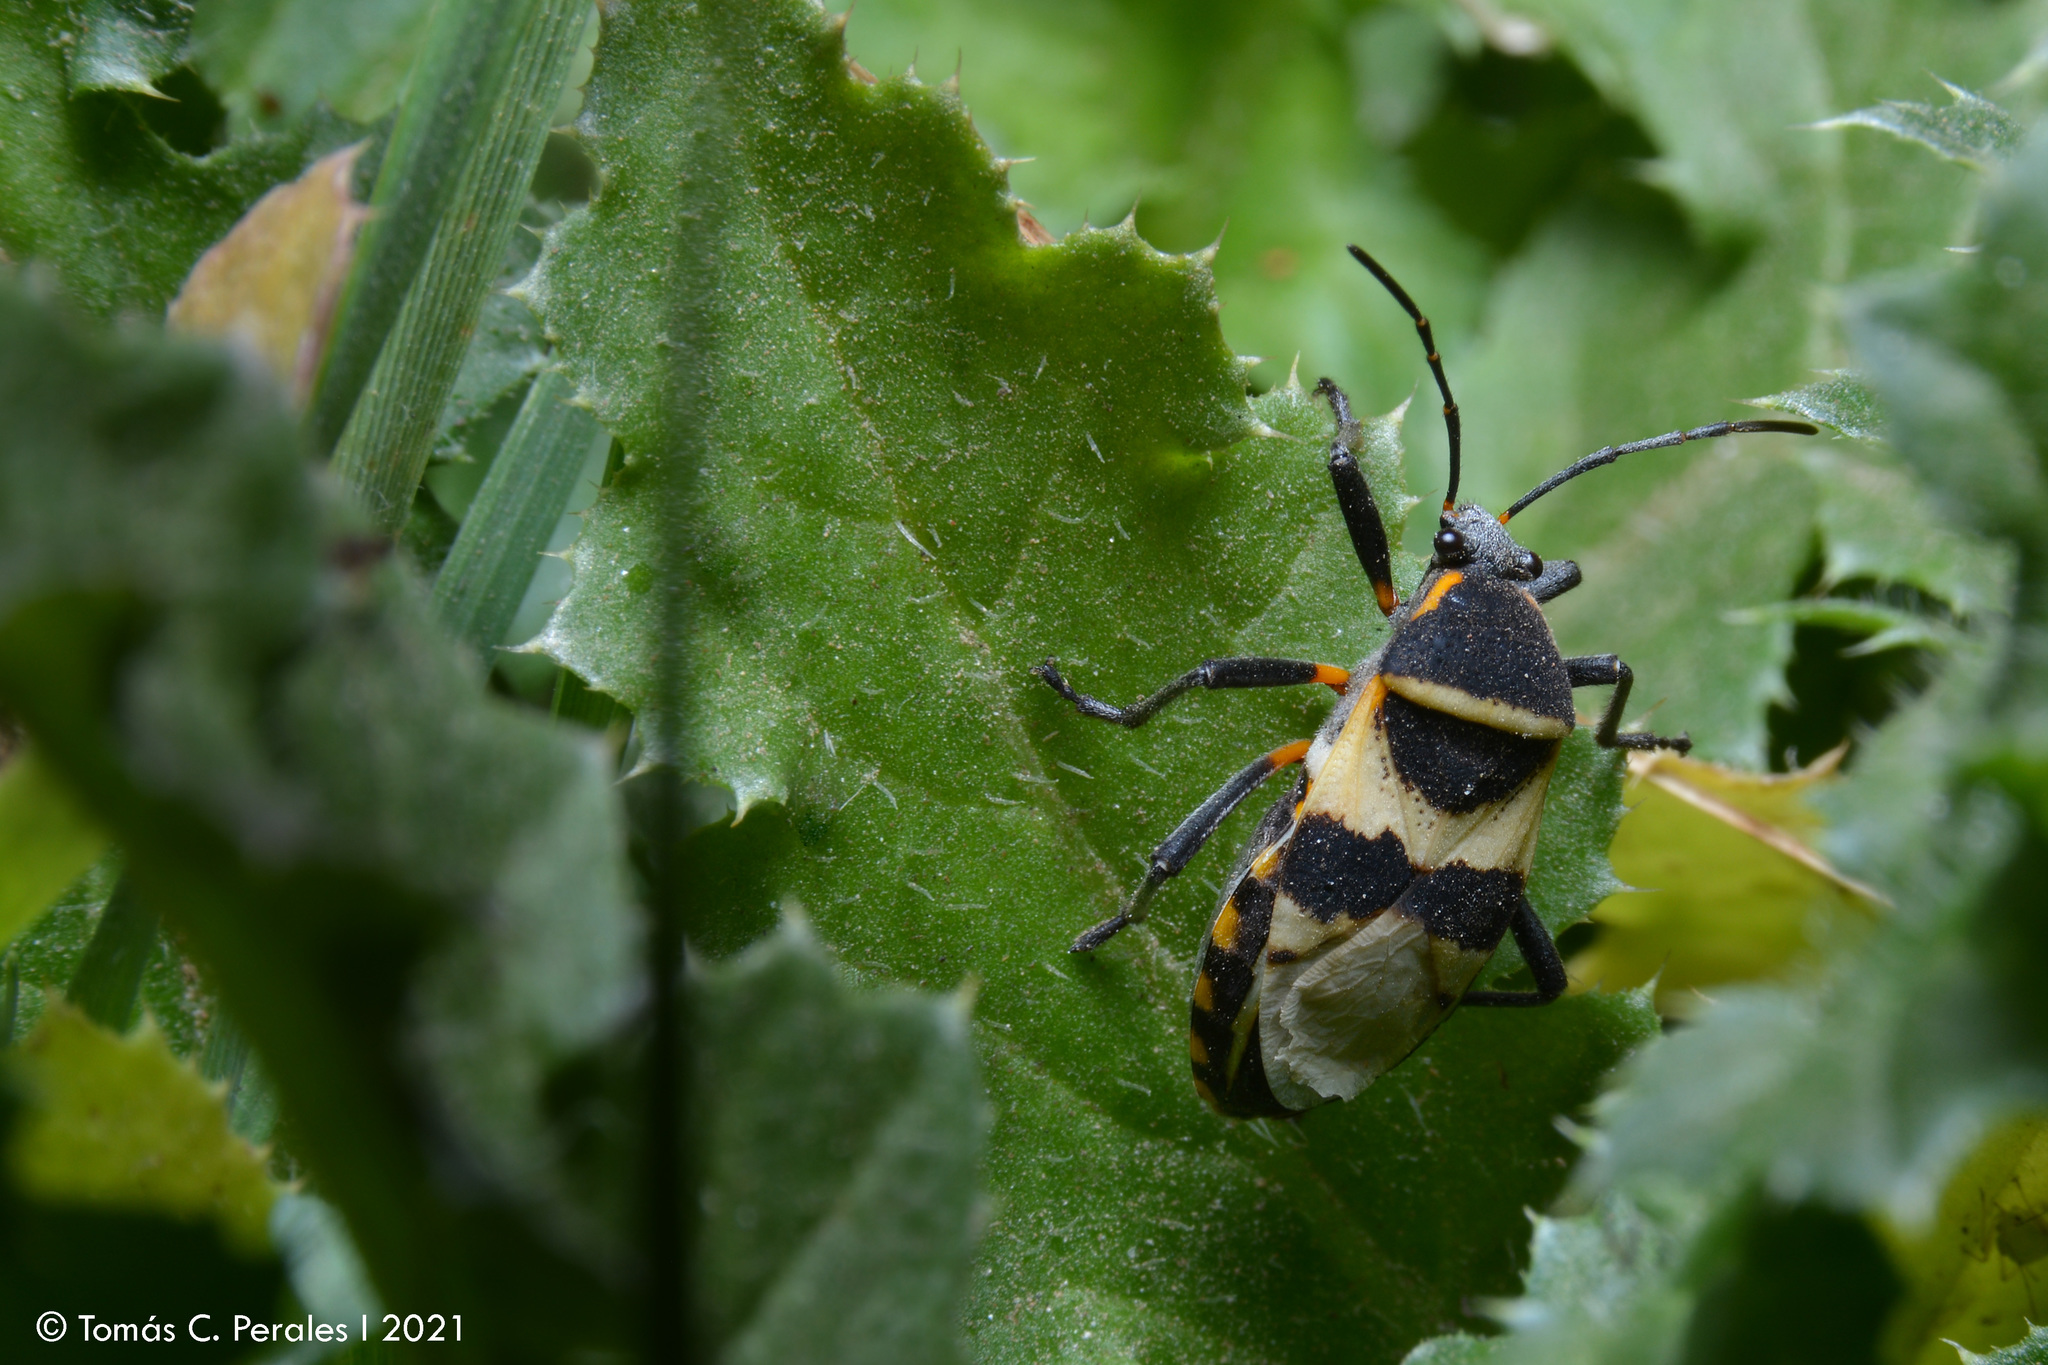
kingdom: Animalia
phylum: Arthropoda
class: Insecta
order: Hemiptera
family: Largidae
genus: Largus
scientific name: Largus fasciatus
